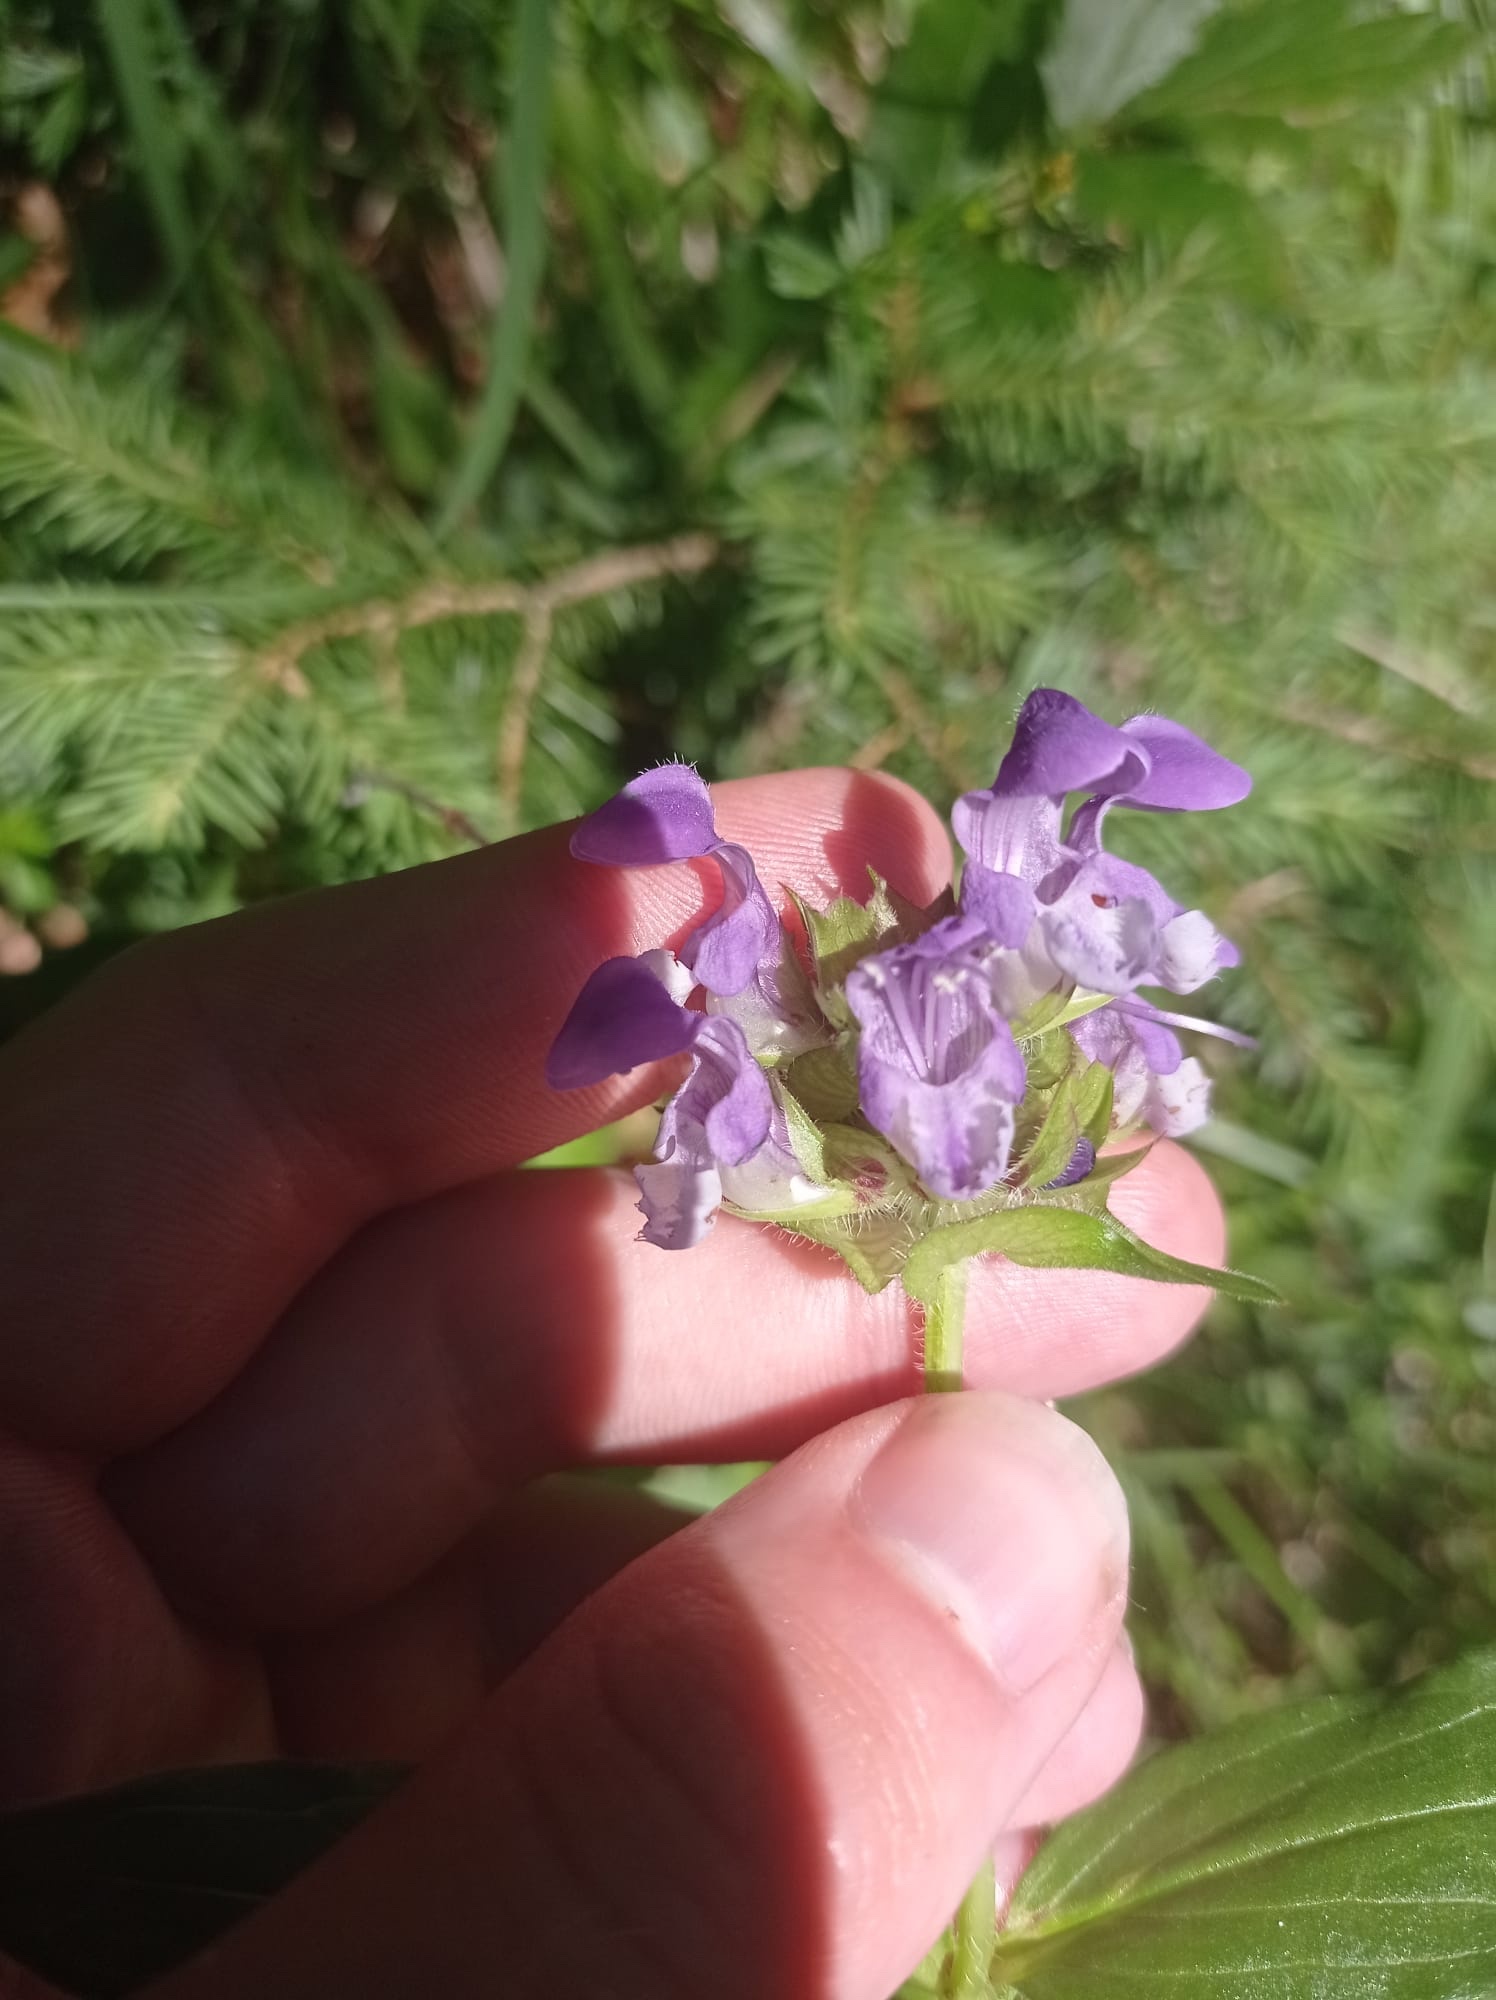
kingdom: Plantae
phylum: Tracheophyta
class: Magnoliopsida
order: Lamiales
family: Lamiaceae
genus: Prunella
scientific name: Prunella grandiflora
